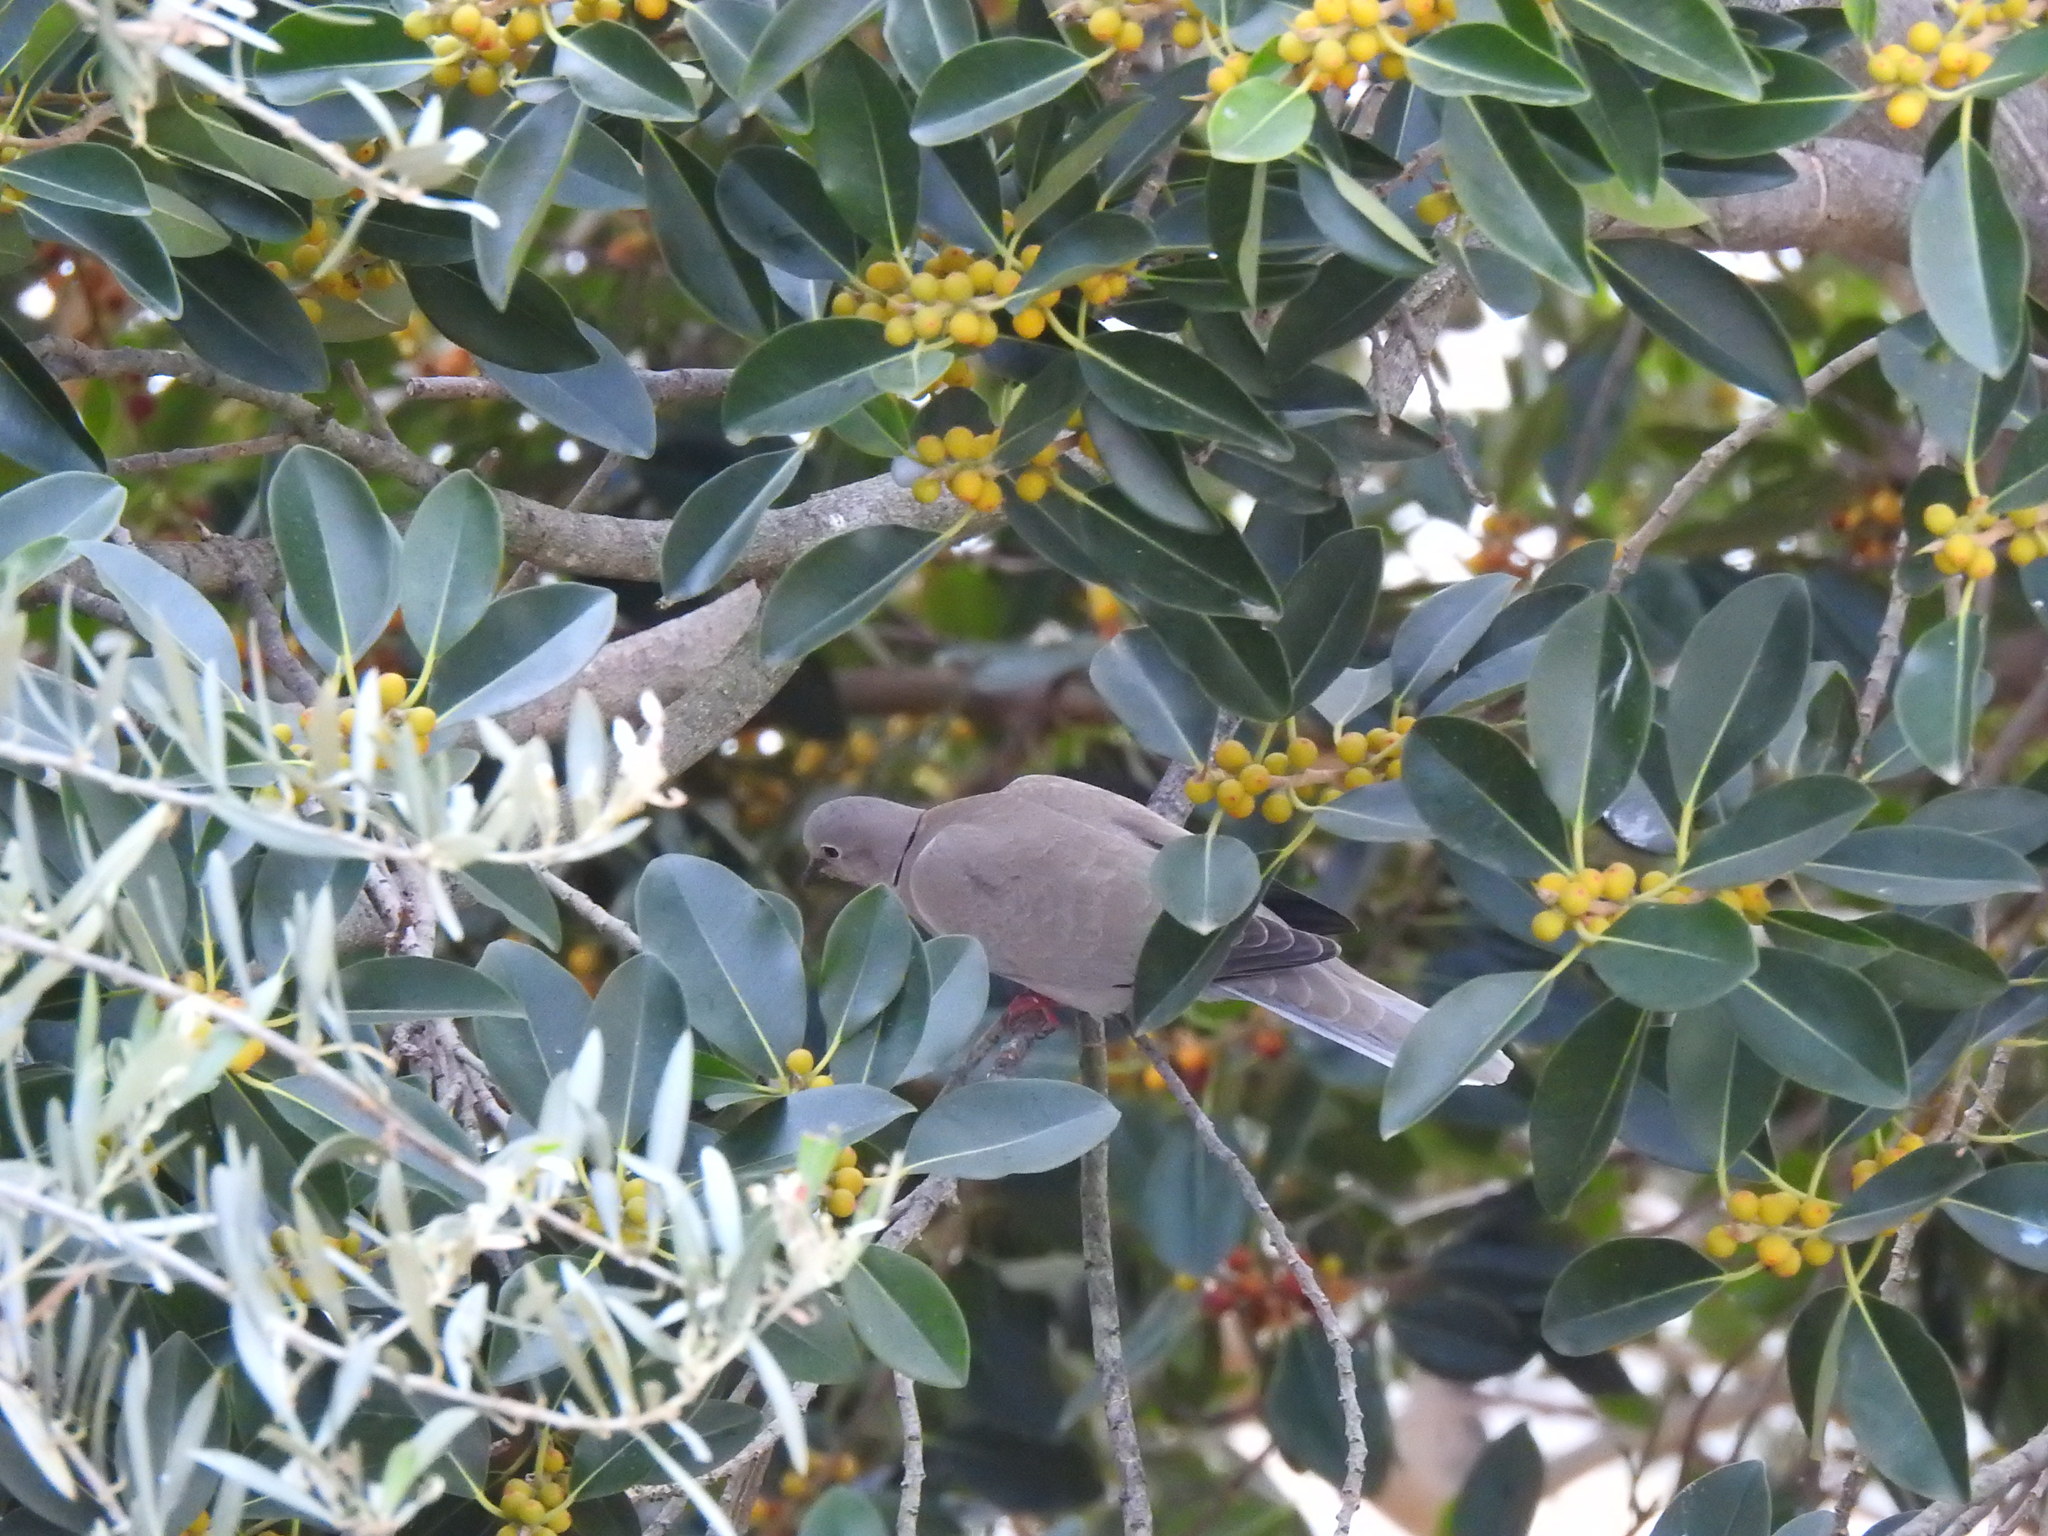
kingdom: Animalia
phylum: Chordata
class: Aves
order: Columbiformes
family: Columbidae
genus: Streptopelia
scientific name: Streptopelia decaocto
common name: Eurasian collared dove
